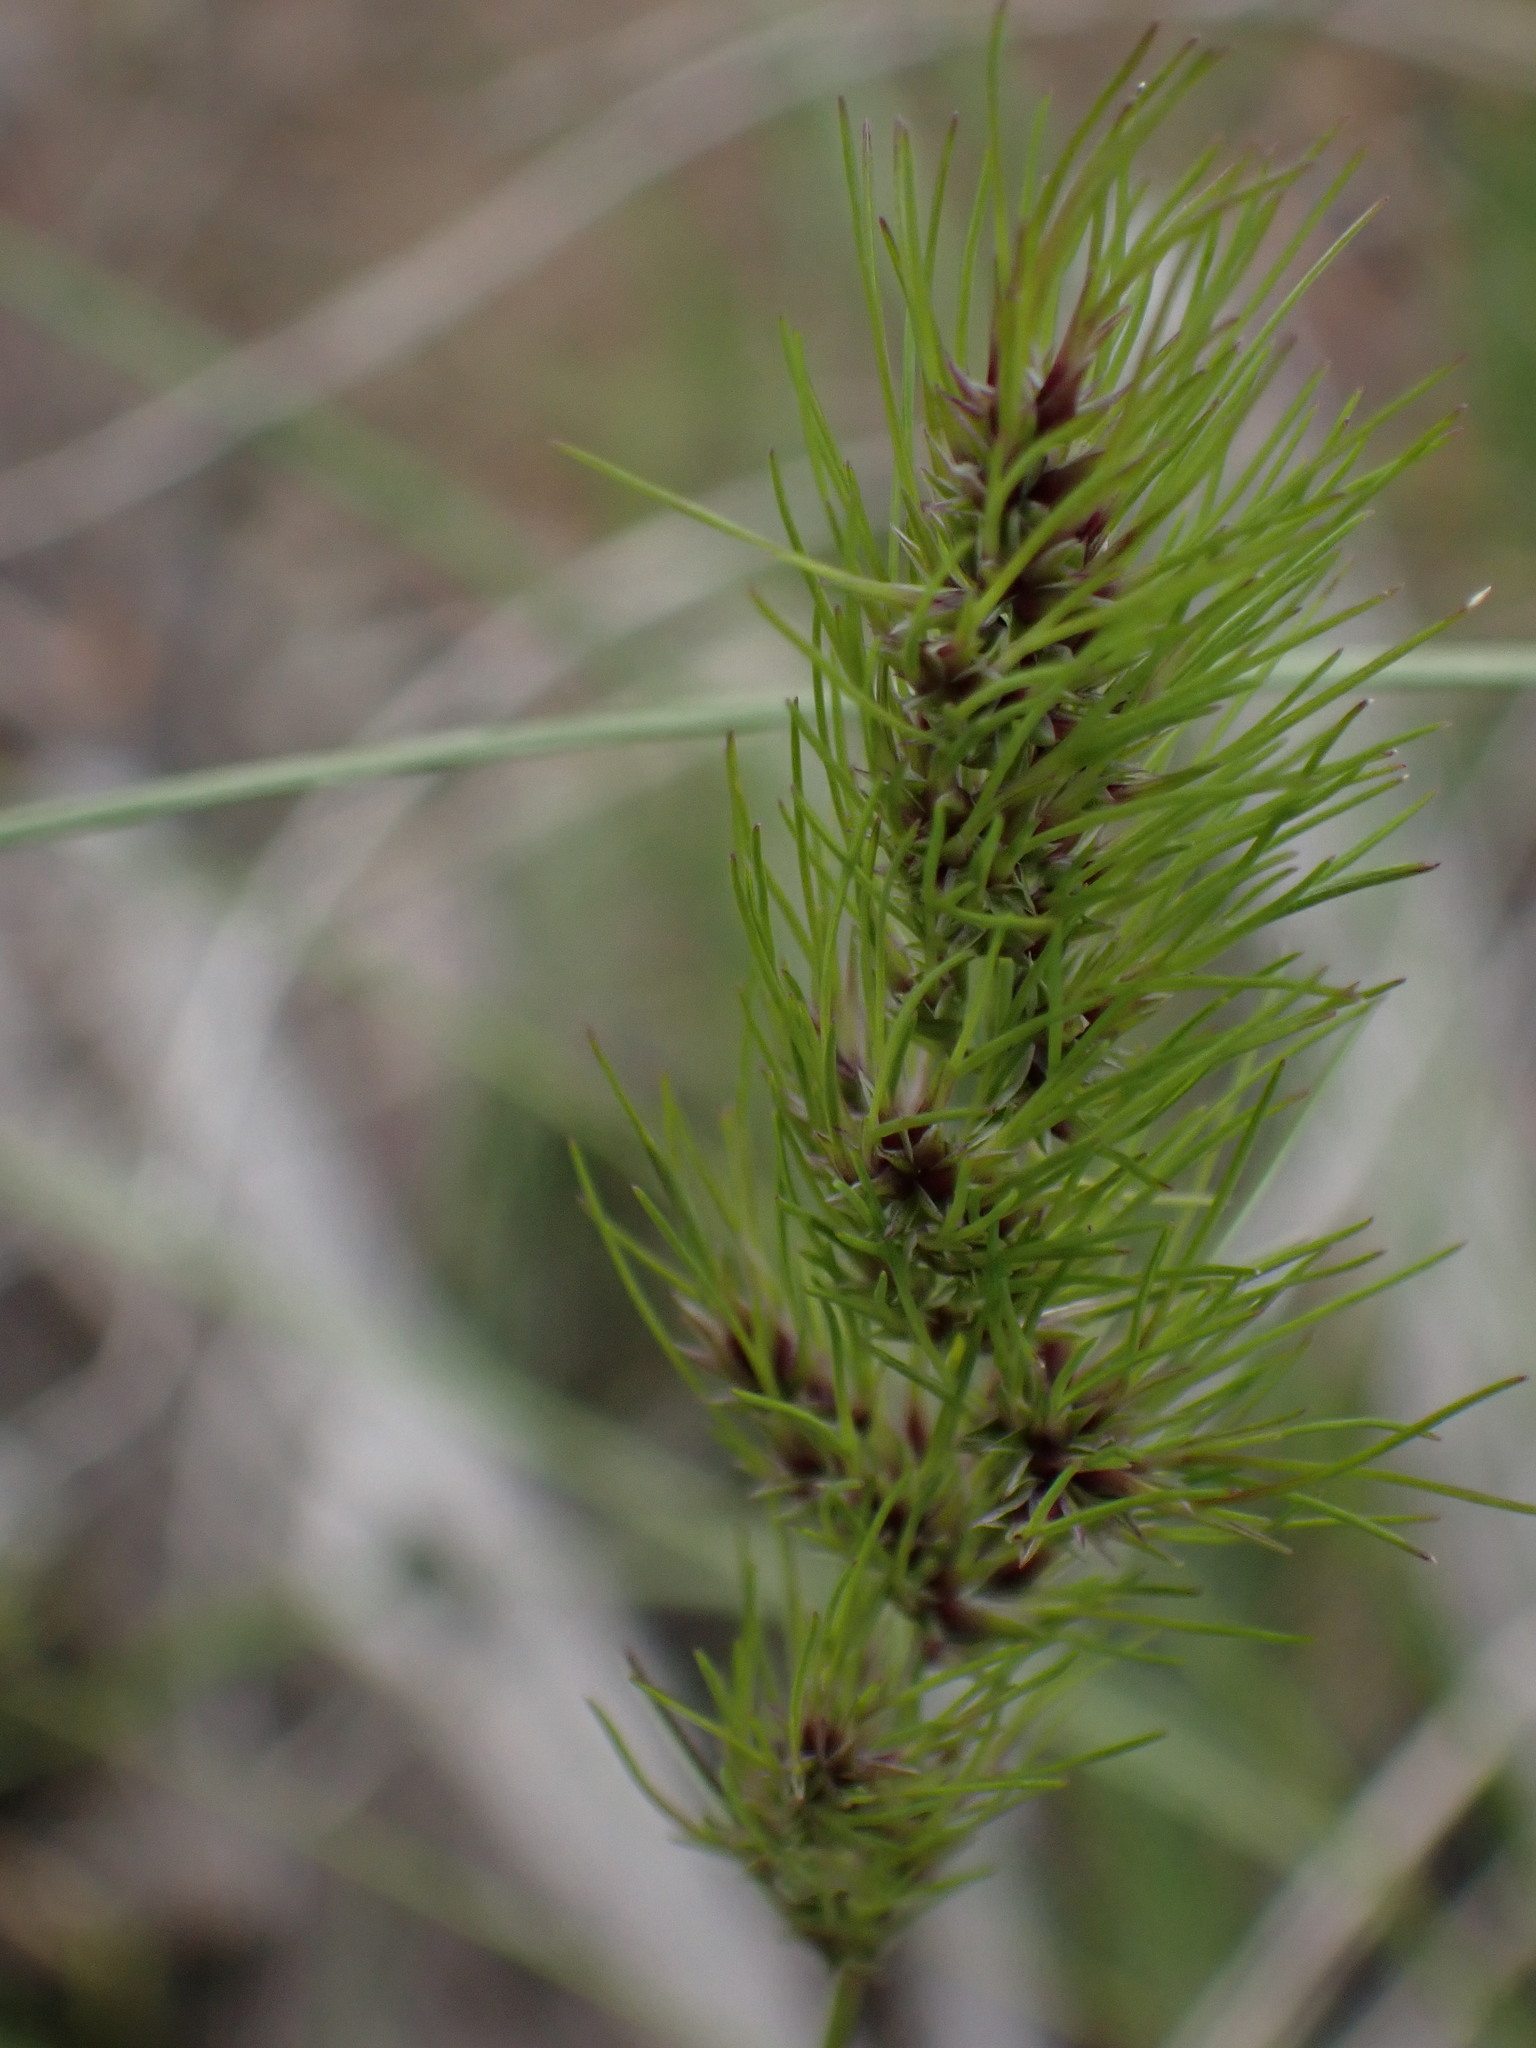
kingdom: Plantae
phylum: Tracheophyta
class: Liliopsida
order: Poales
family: Poaceae
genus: Poa
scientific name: Poa bulbosa
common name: Bulbous bluegrass
